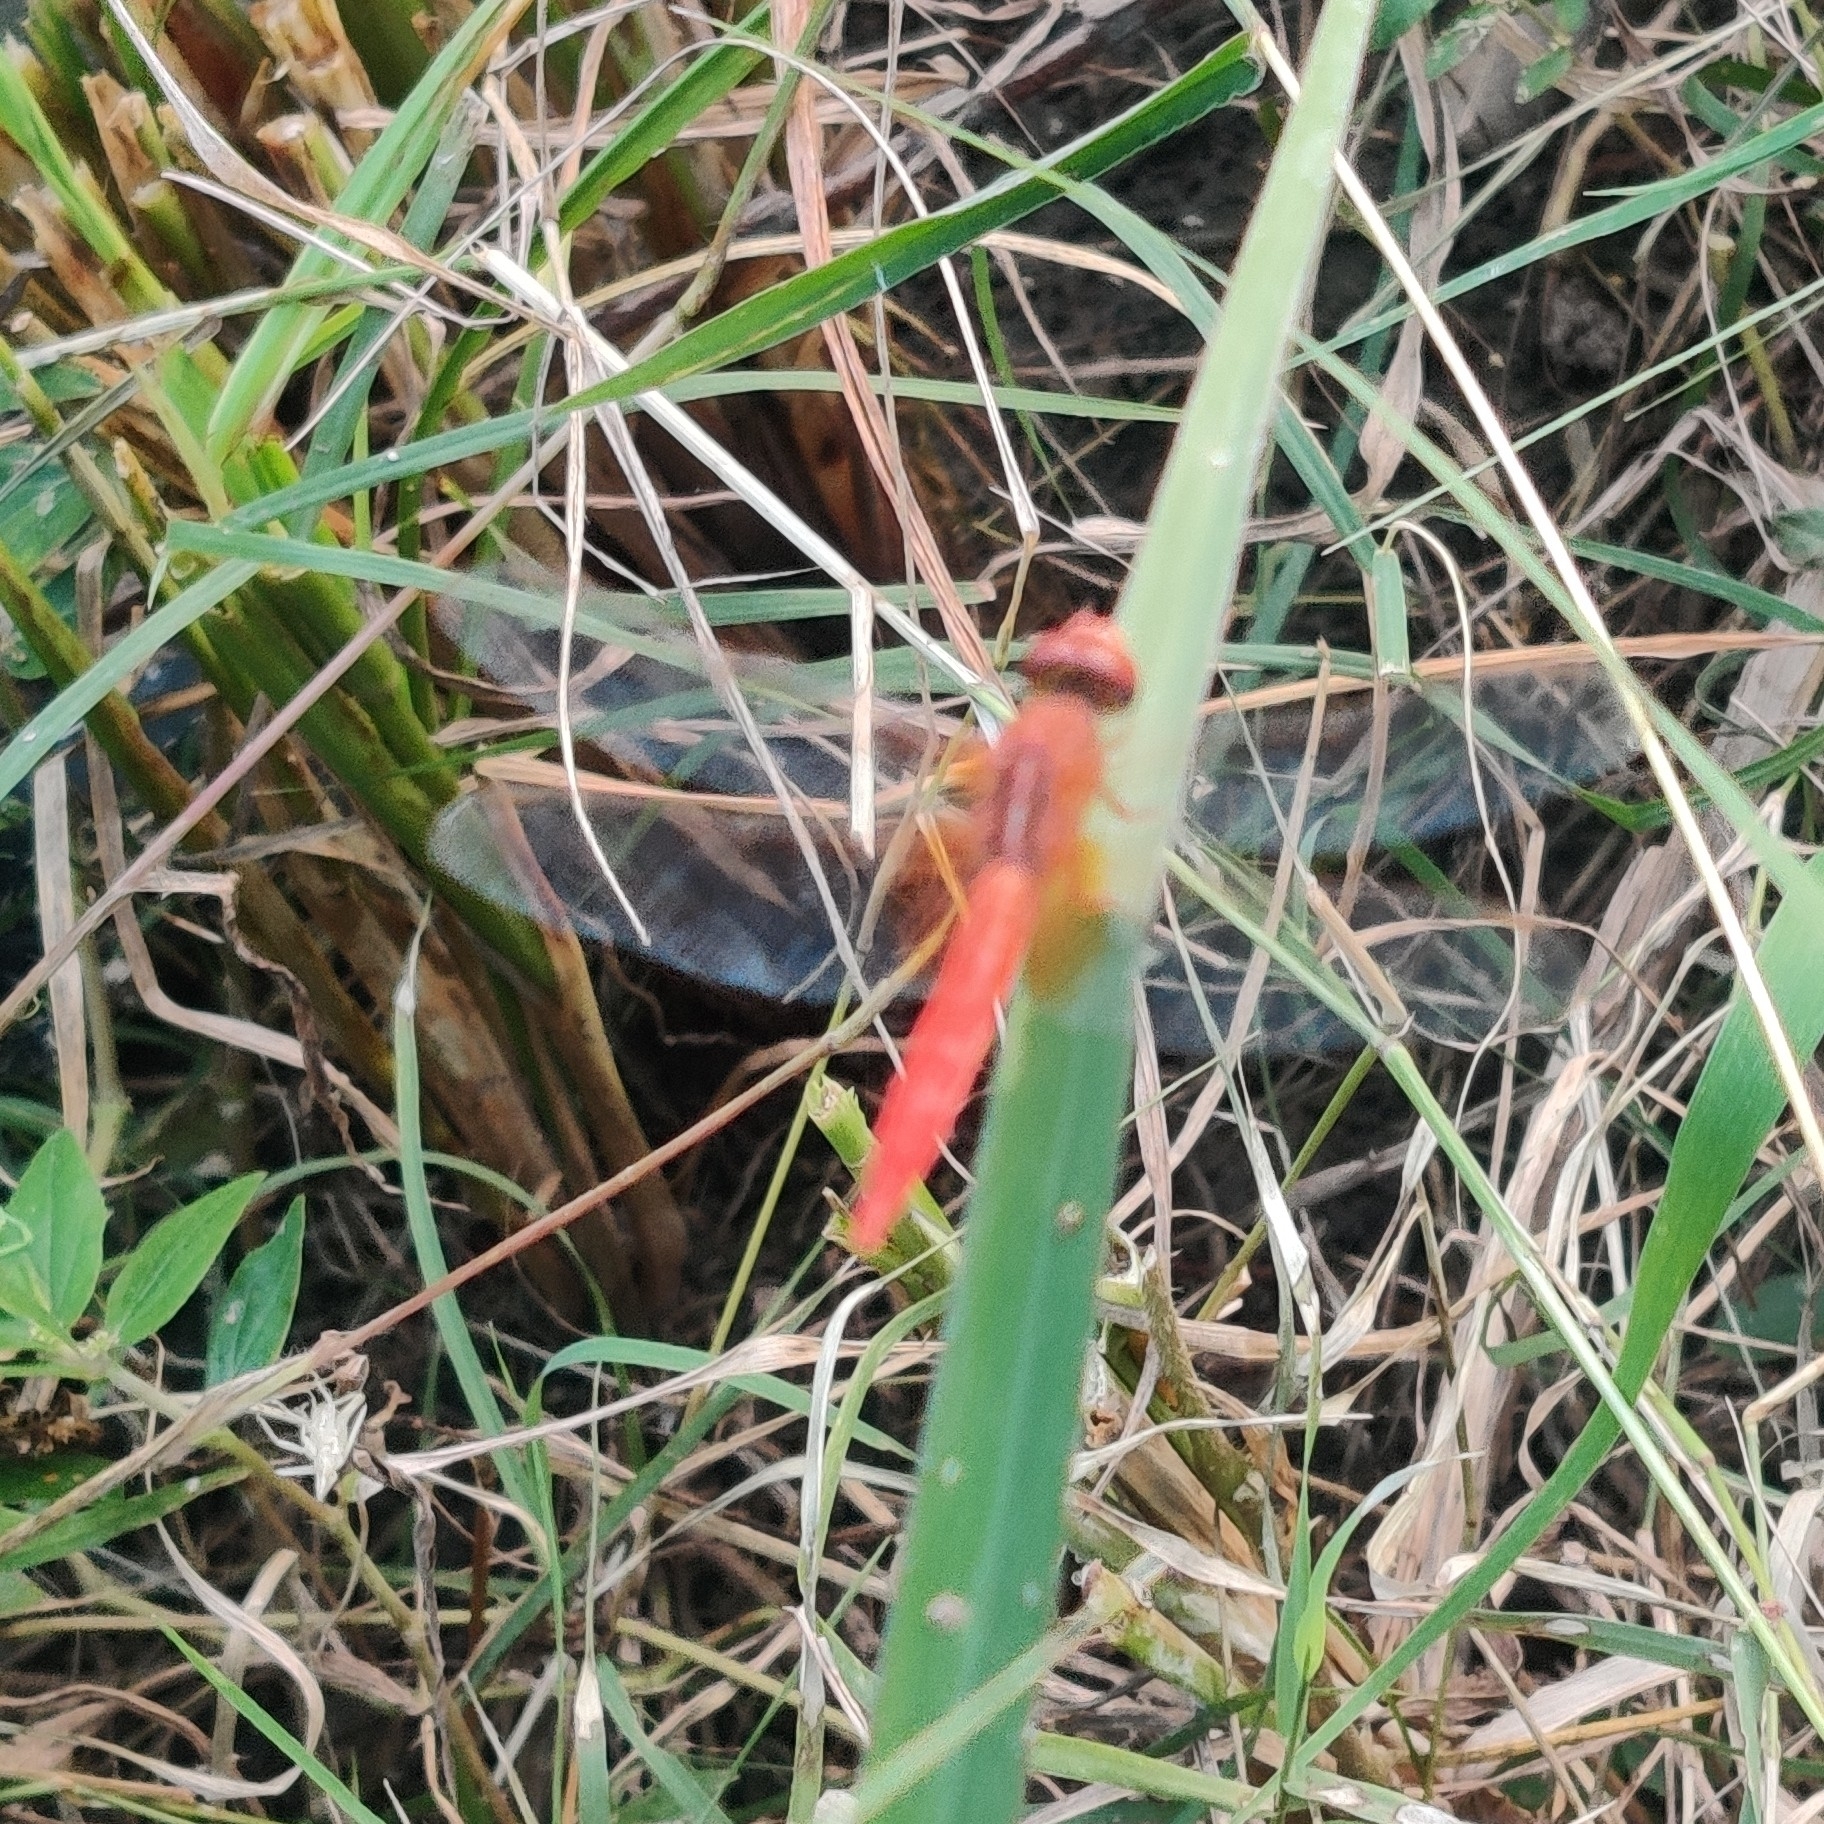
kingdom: Animalia
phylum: Arthropoda
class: Insecta
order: Odonata
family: Libellulidae
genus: Crocothemis
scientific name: Crocothemis servilia
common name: Scarlet skimmer
